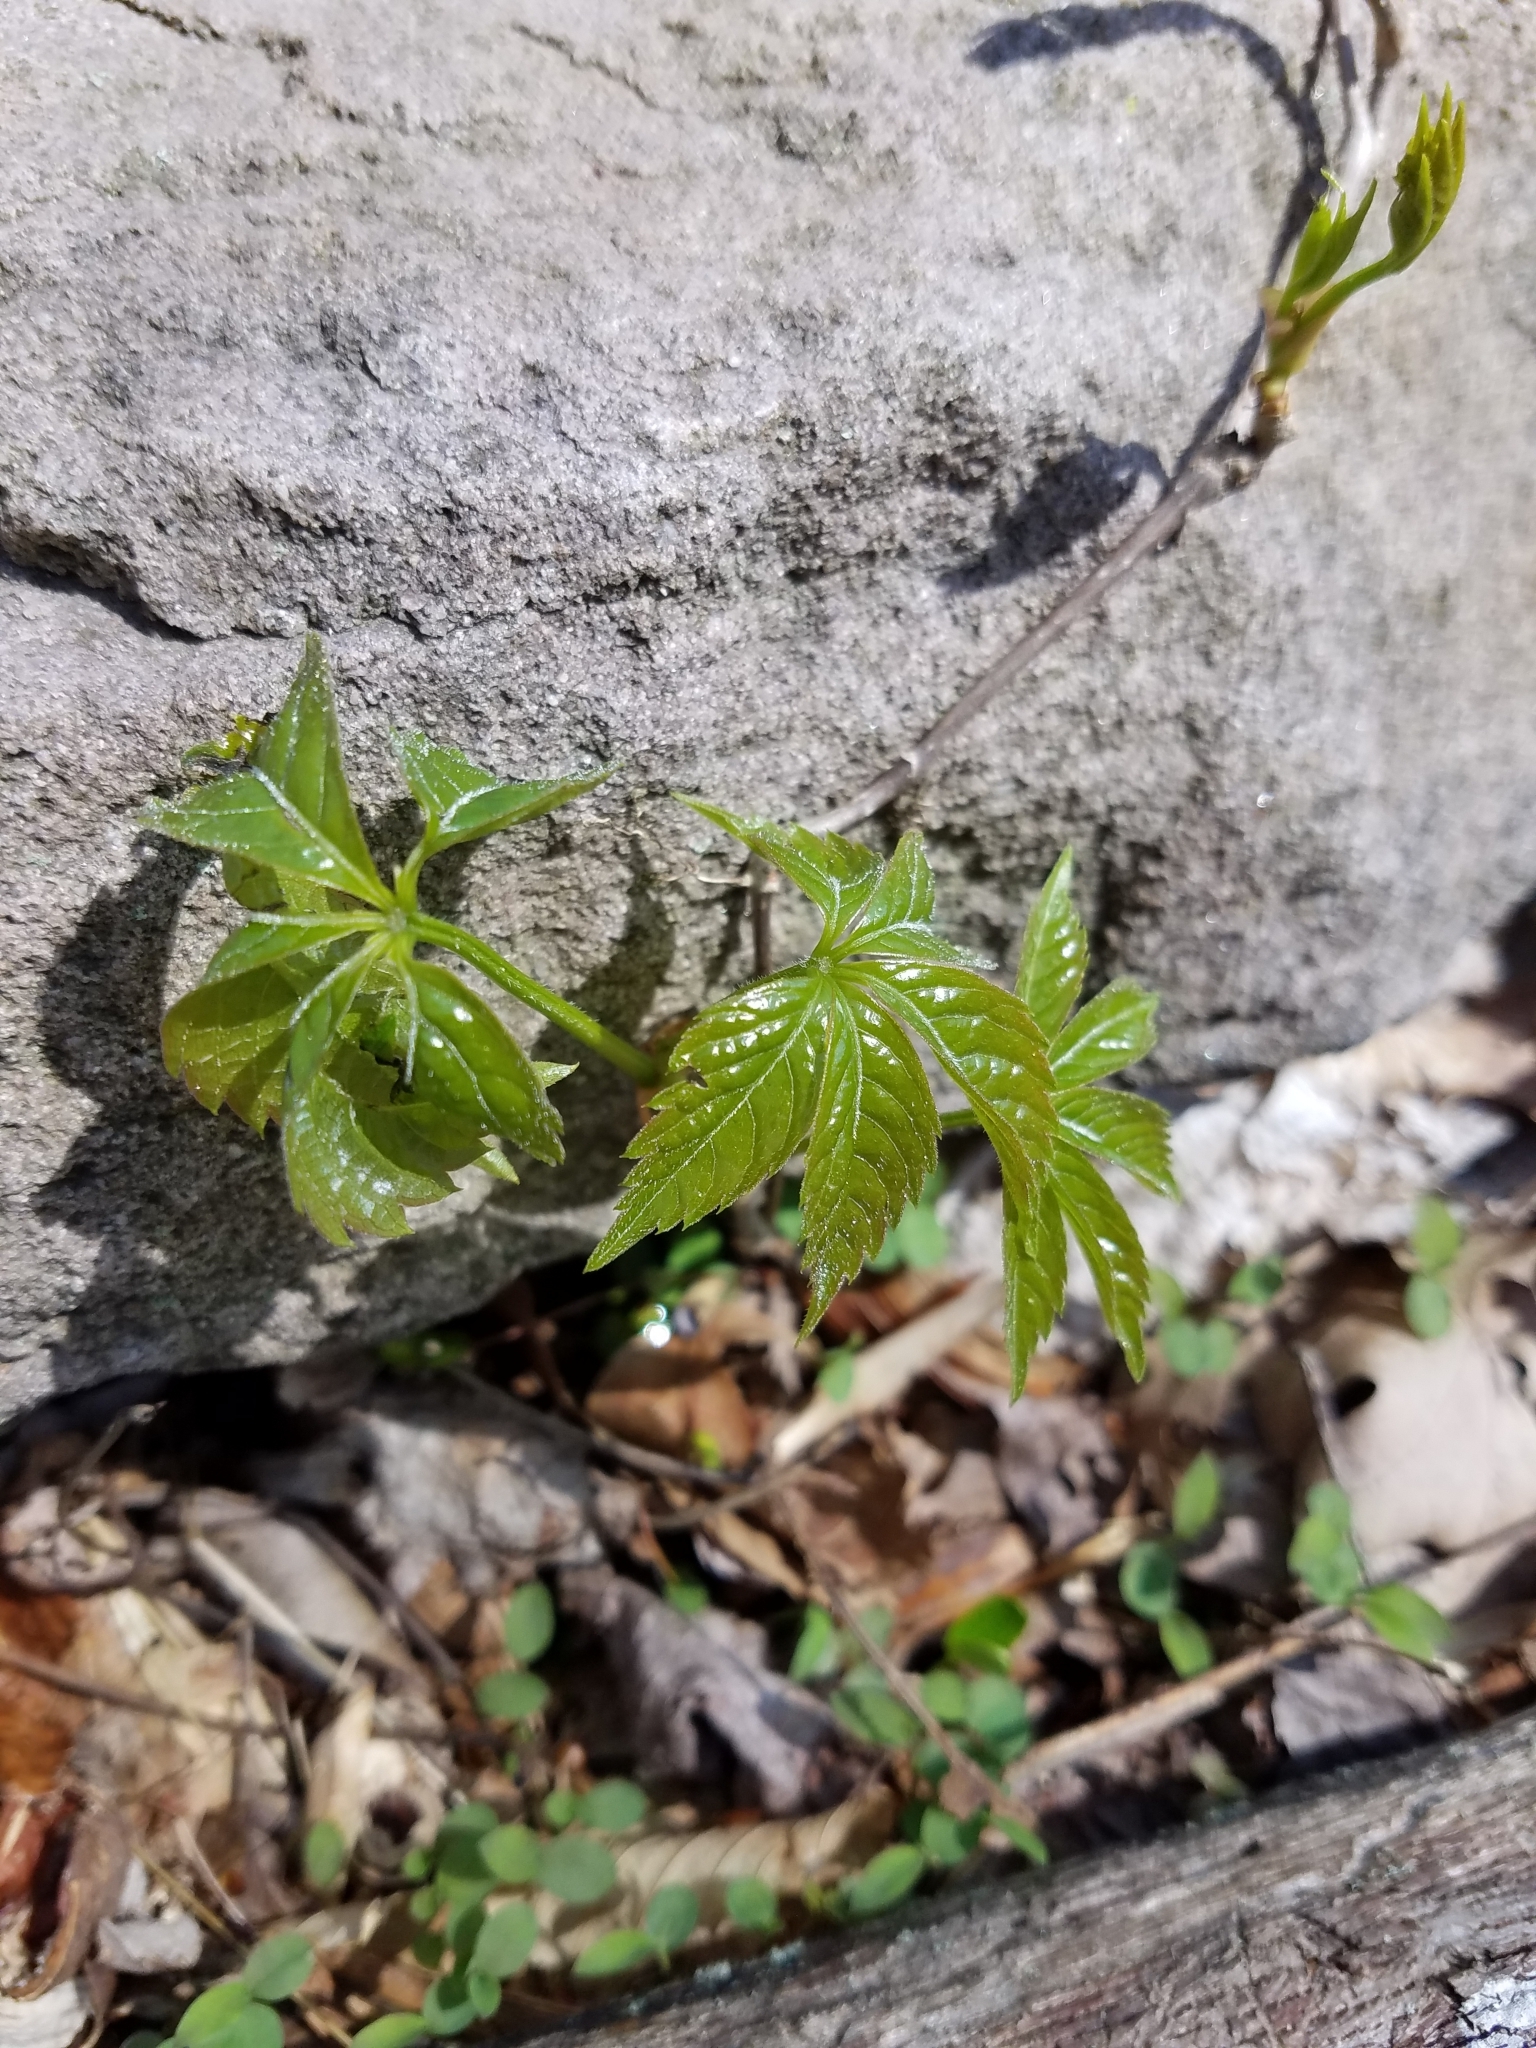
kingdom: Plantae
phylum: Tracheophyta
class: Magnoliopsida
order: Vitales
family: Vitaceae
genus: Parthenocissus
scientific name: Parthenocissus quinquefolia
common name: Virginia-creeper
